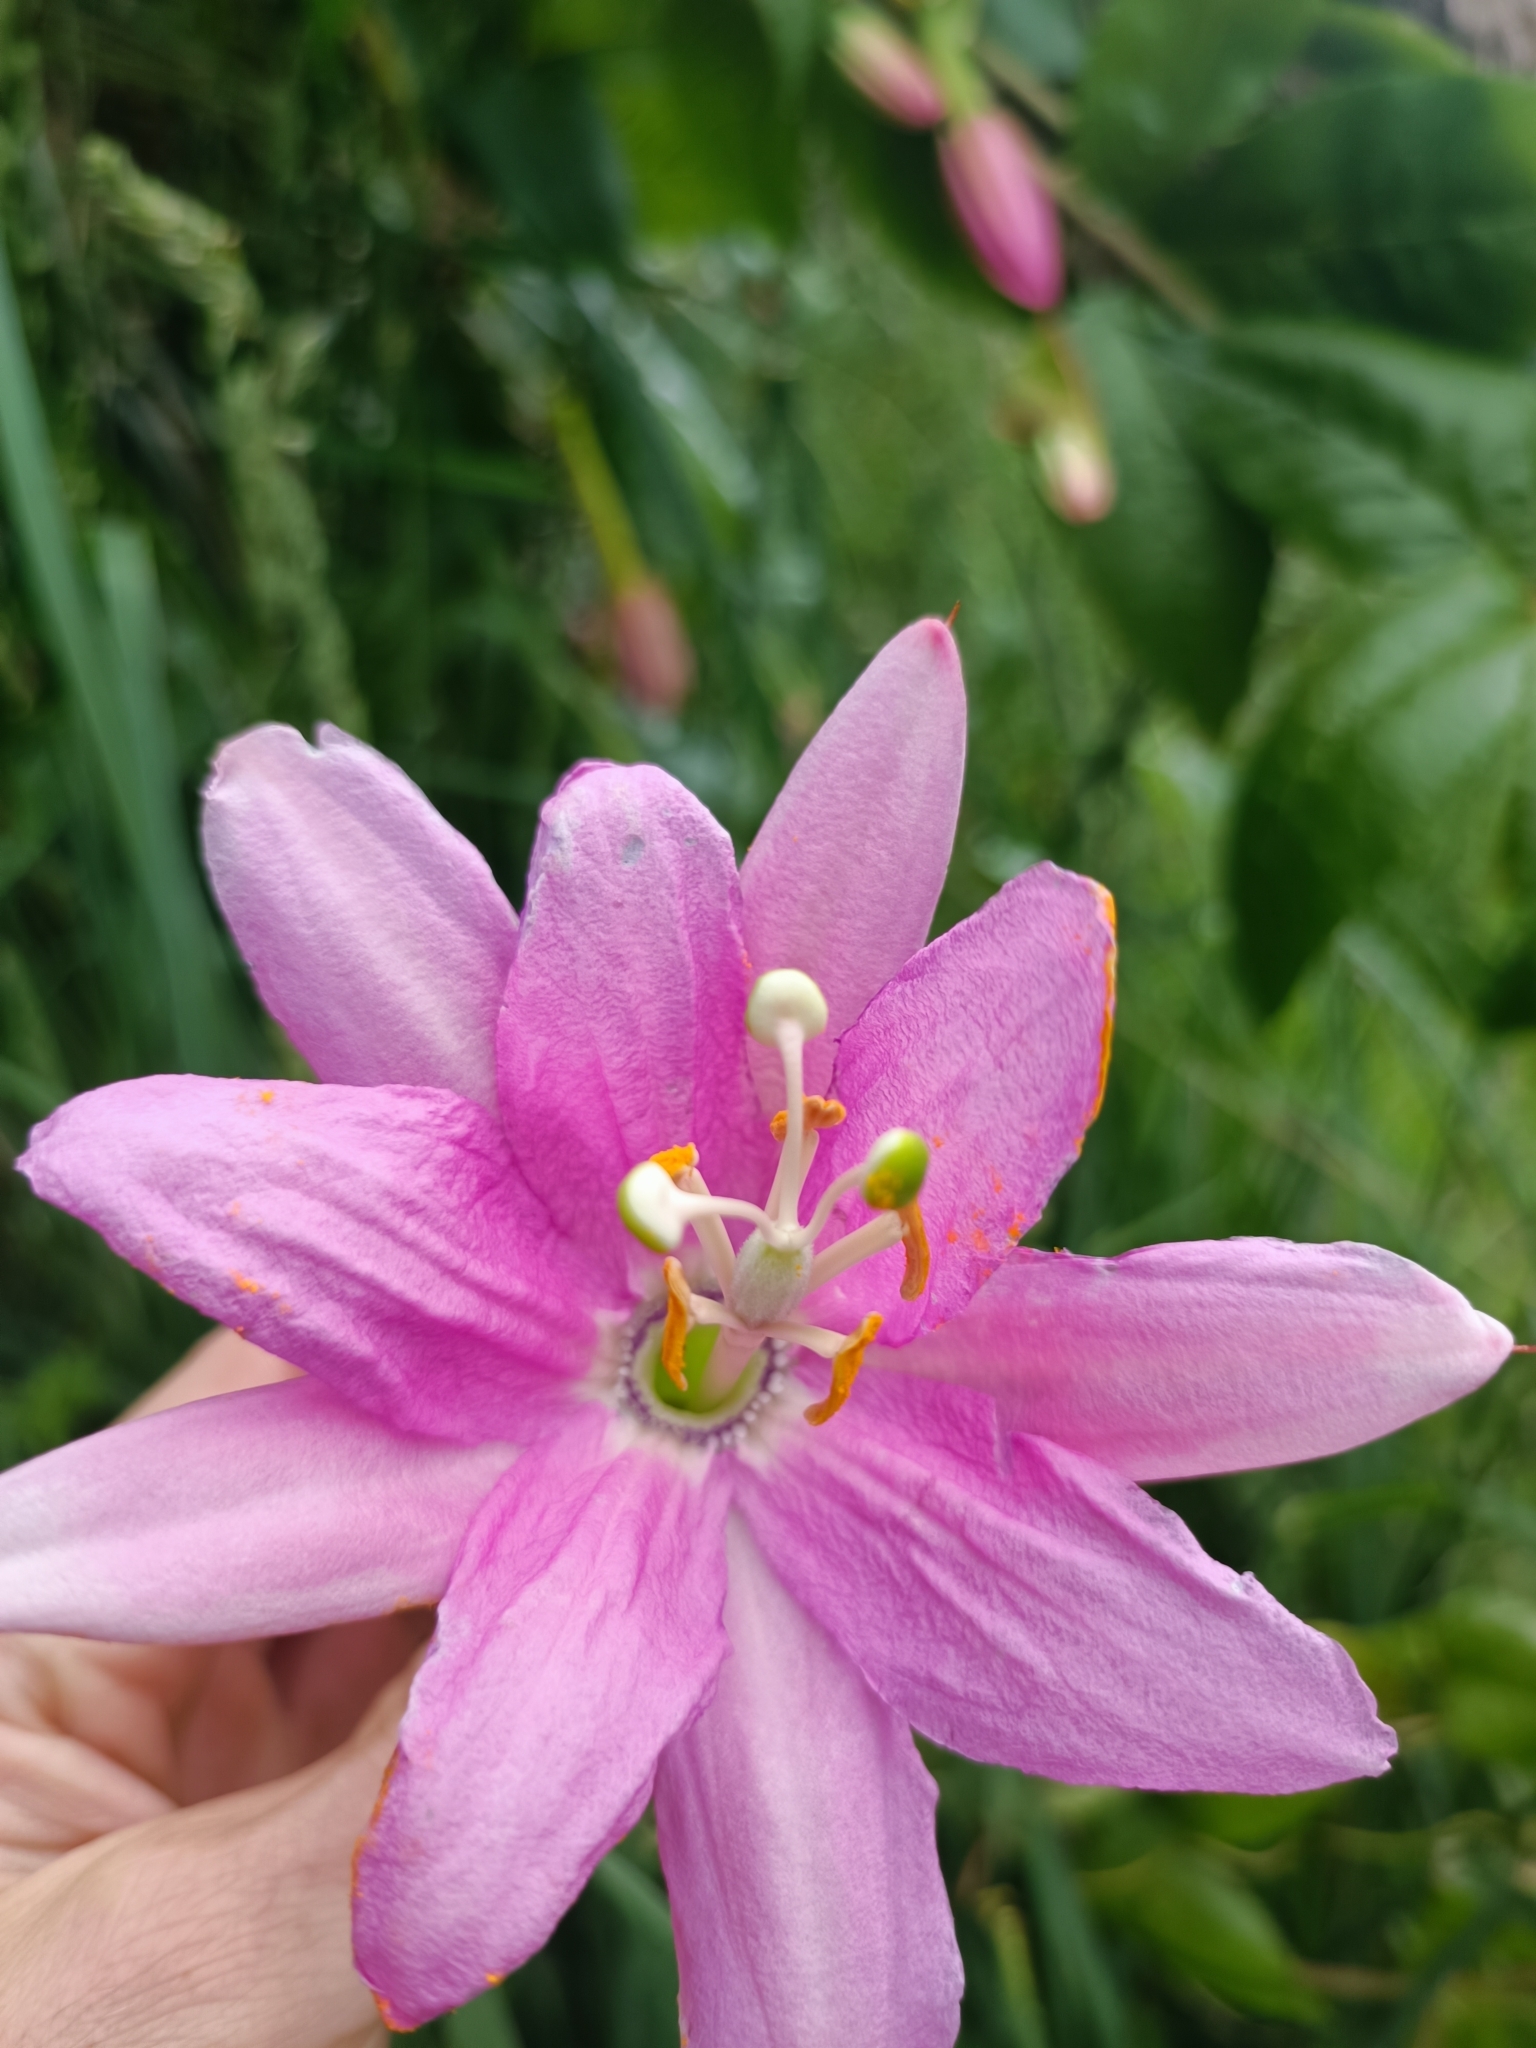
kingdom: Plantae
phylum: Tracheophyta
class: Magnoliopsida
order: Malpighiales
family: Passifloraceae
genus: Passiflora
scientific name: Passiflora tarminiana
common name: Banana poka
